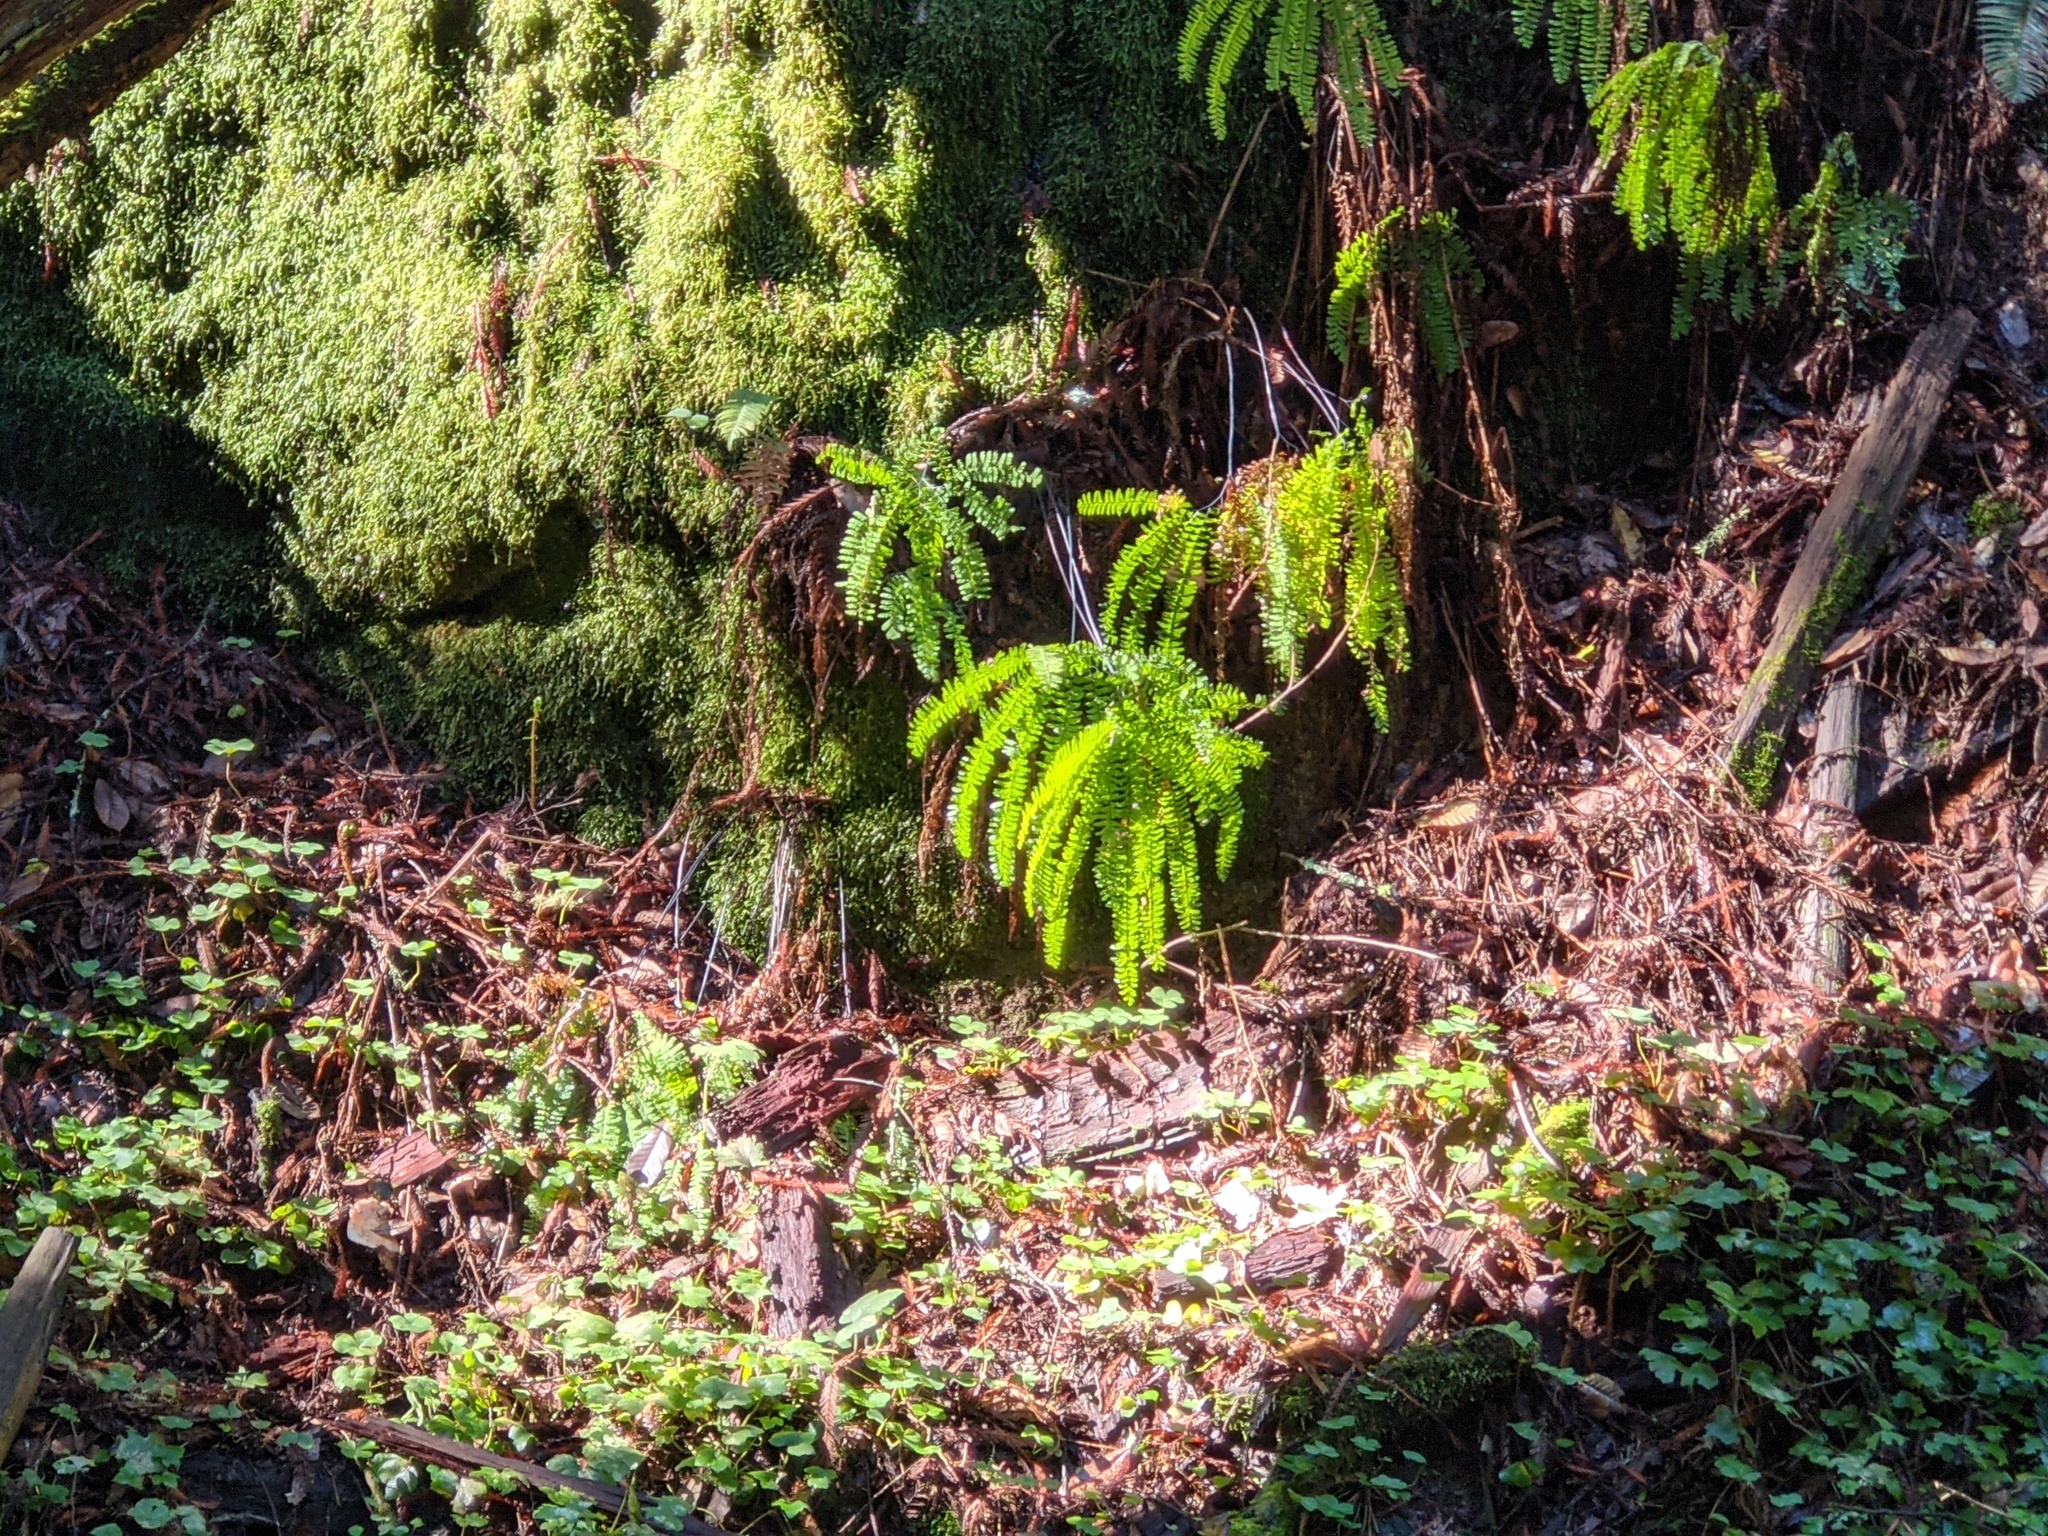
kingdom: Plantae
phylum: Tracheophyta
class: Polypodiopsida
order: Polypodiales
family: Pteridaceae
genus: Adiantum
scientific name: Adiantum aleuticum
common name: Aleutian maidenhair fern
